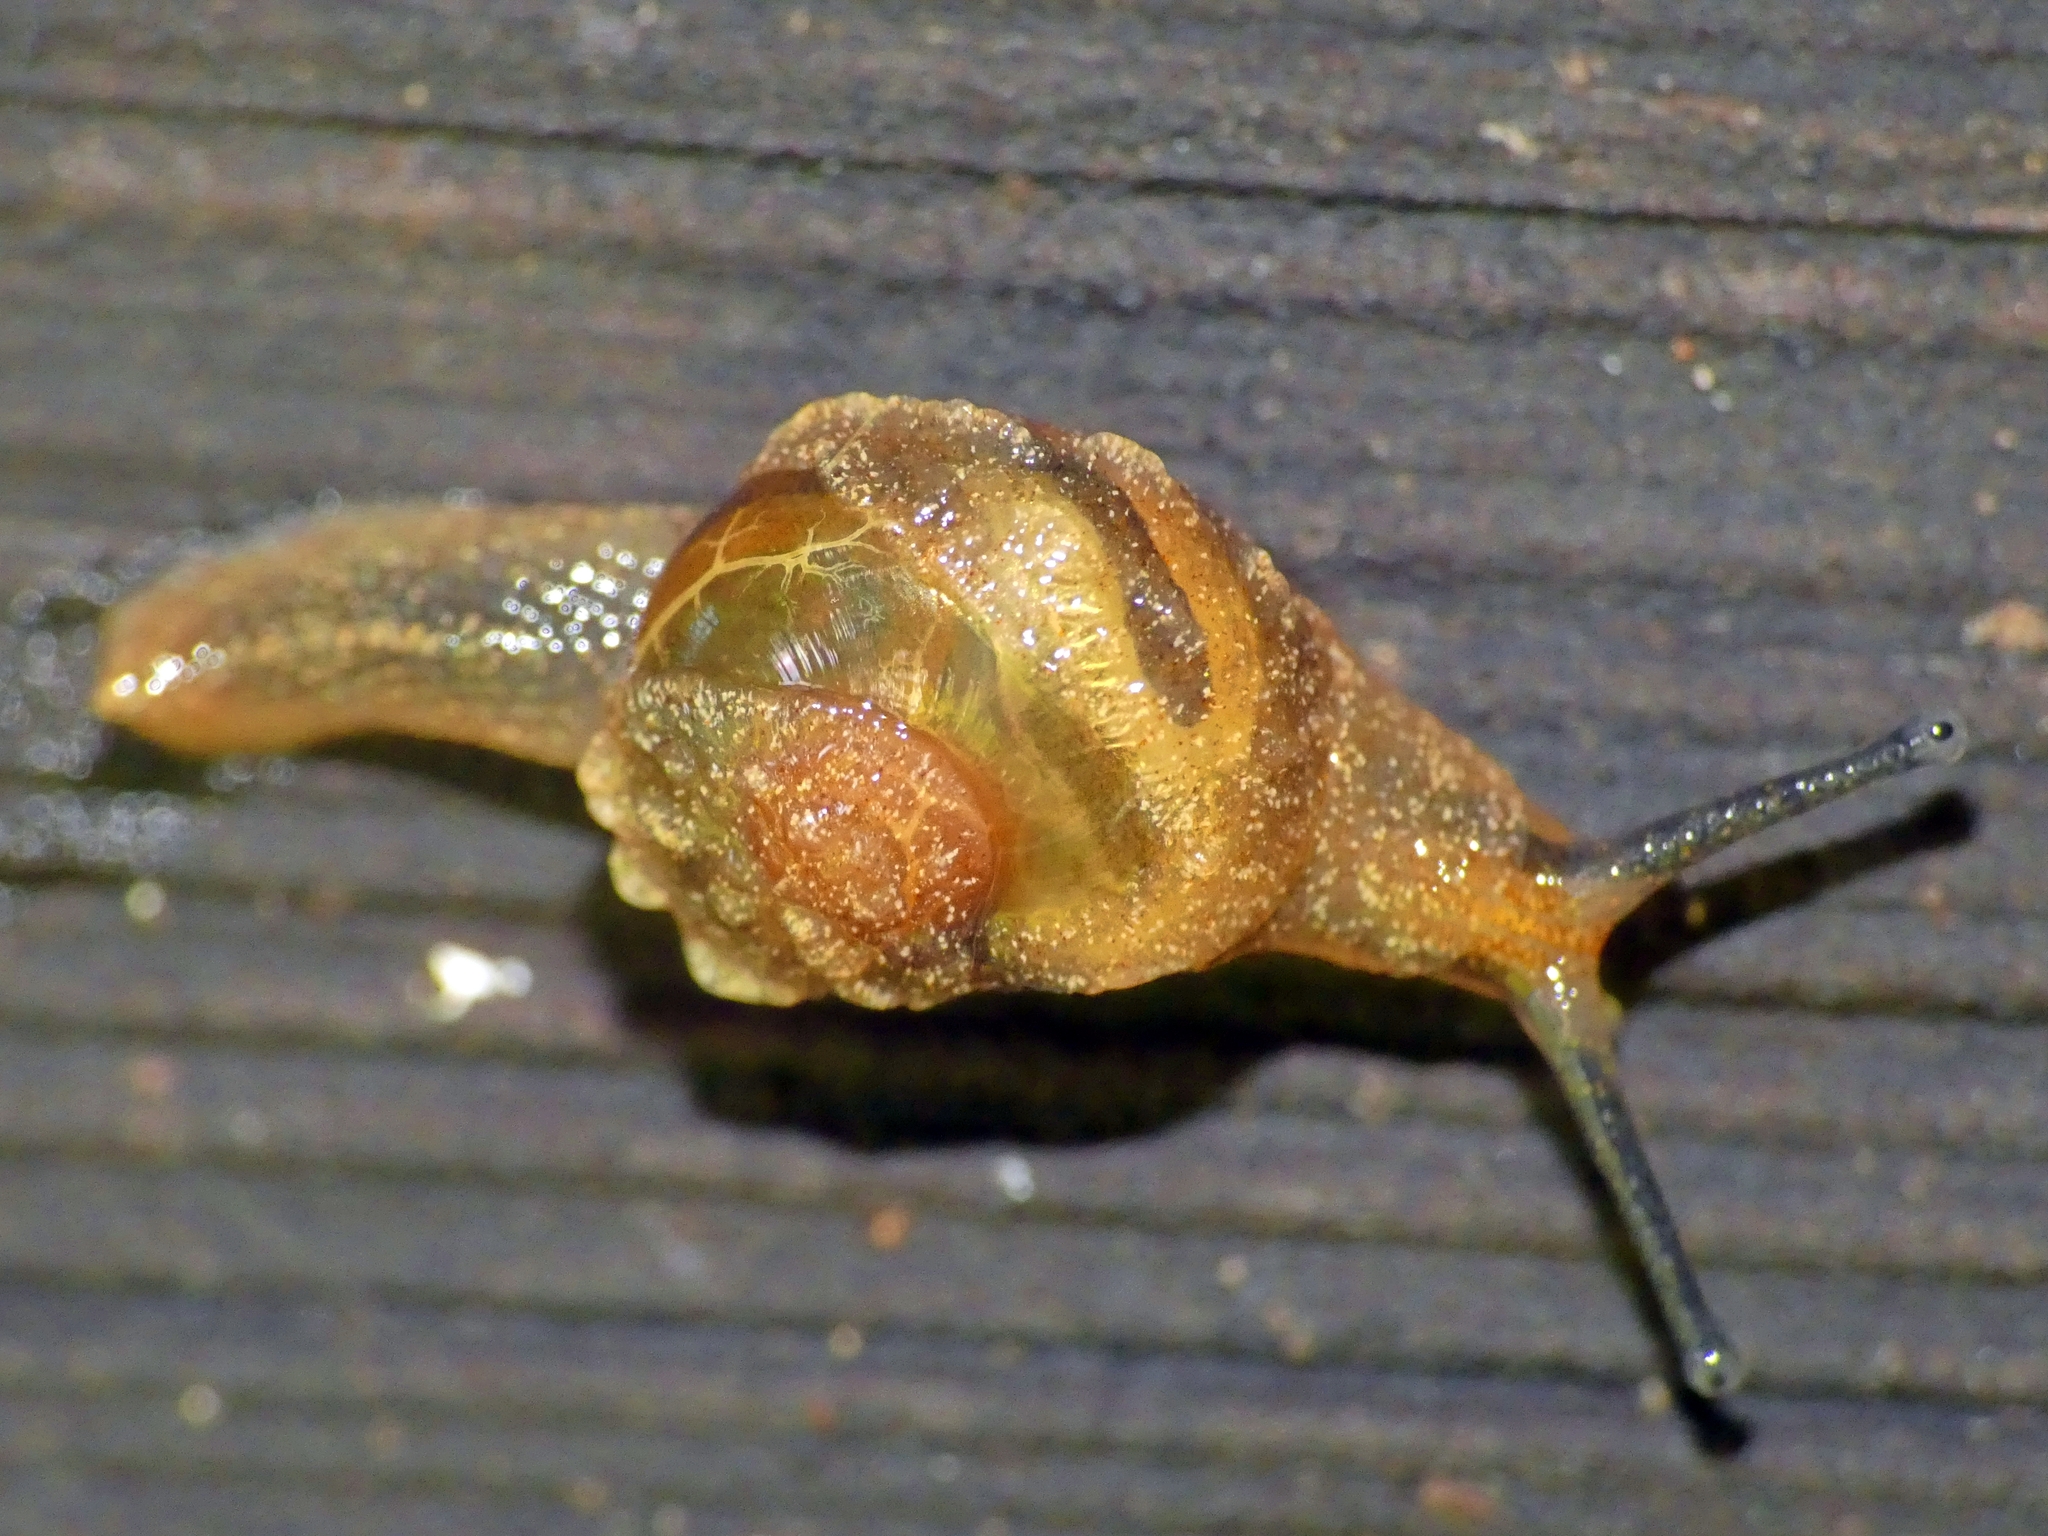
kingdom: Animalia
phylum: Mollusca
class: Gastropoda
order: Stylommatophora
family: Helicarionidae
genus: Fastosarion
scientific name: Fastosarion brazieri
